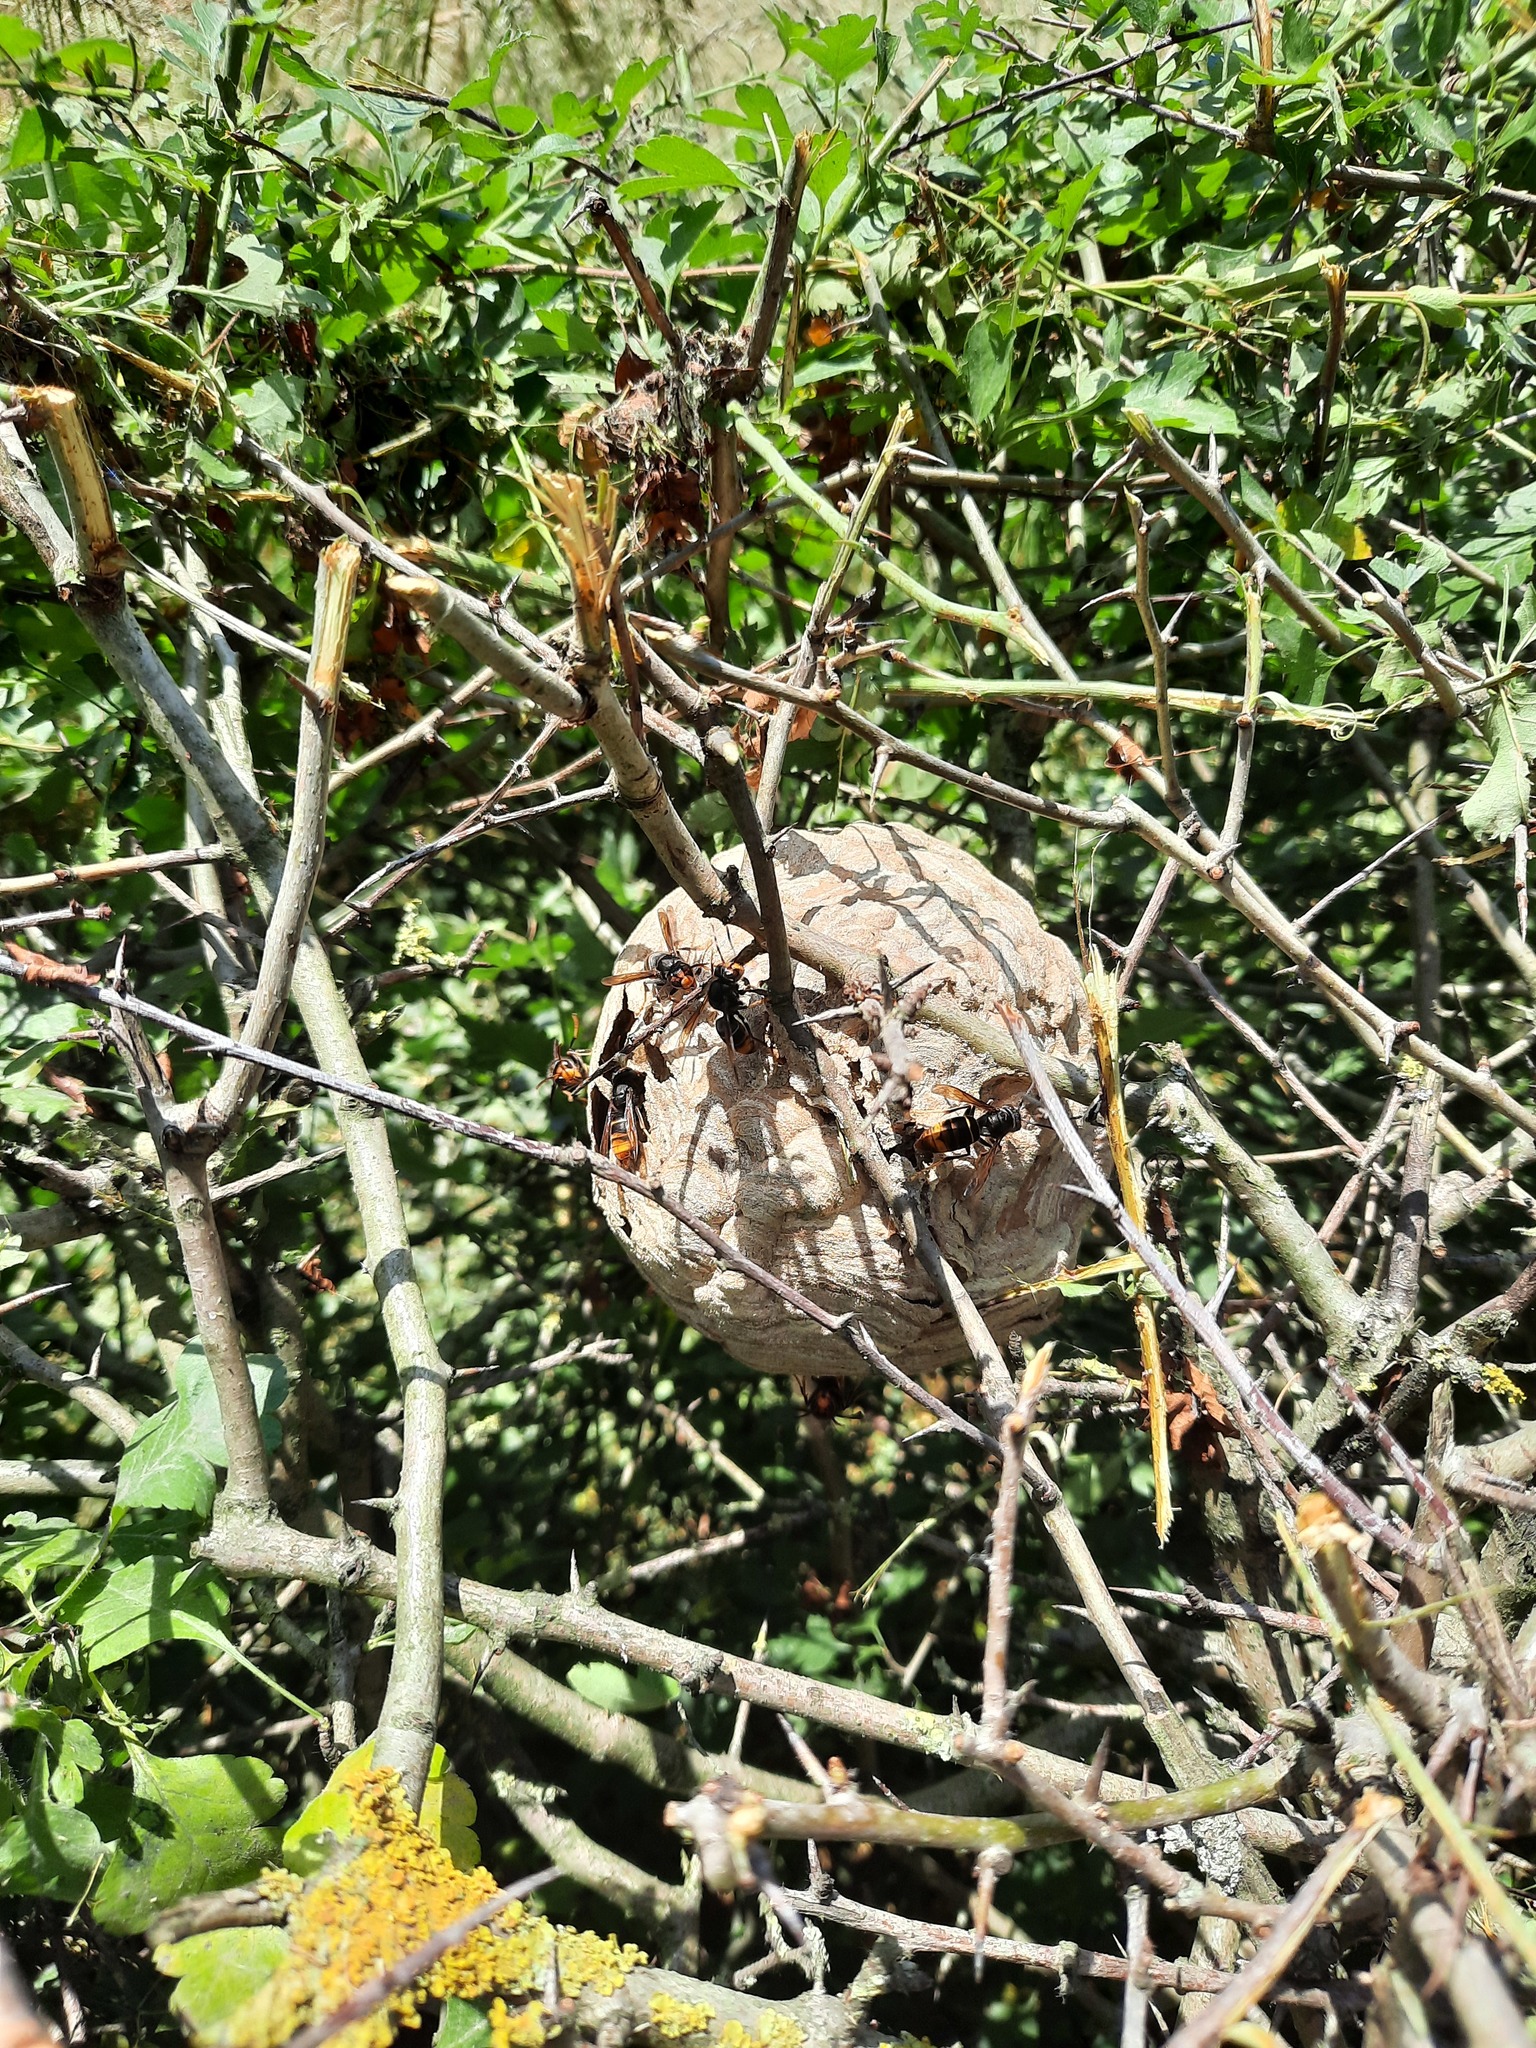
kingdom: Animalia
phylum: Arthropoda
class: Insecta
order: Hymenoptera
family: Vespidae
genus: Vespa
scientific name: Vespa velutina
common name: Asian hornet
